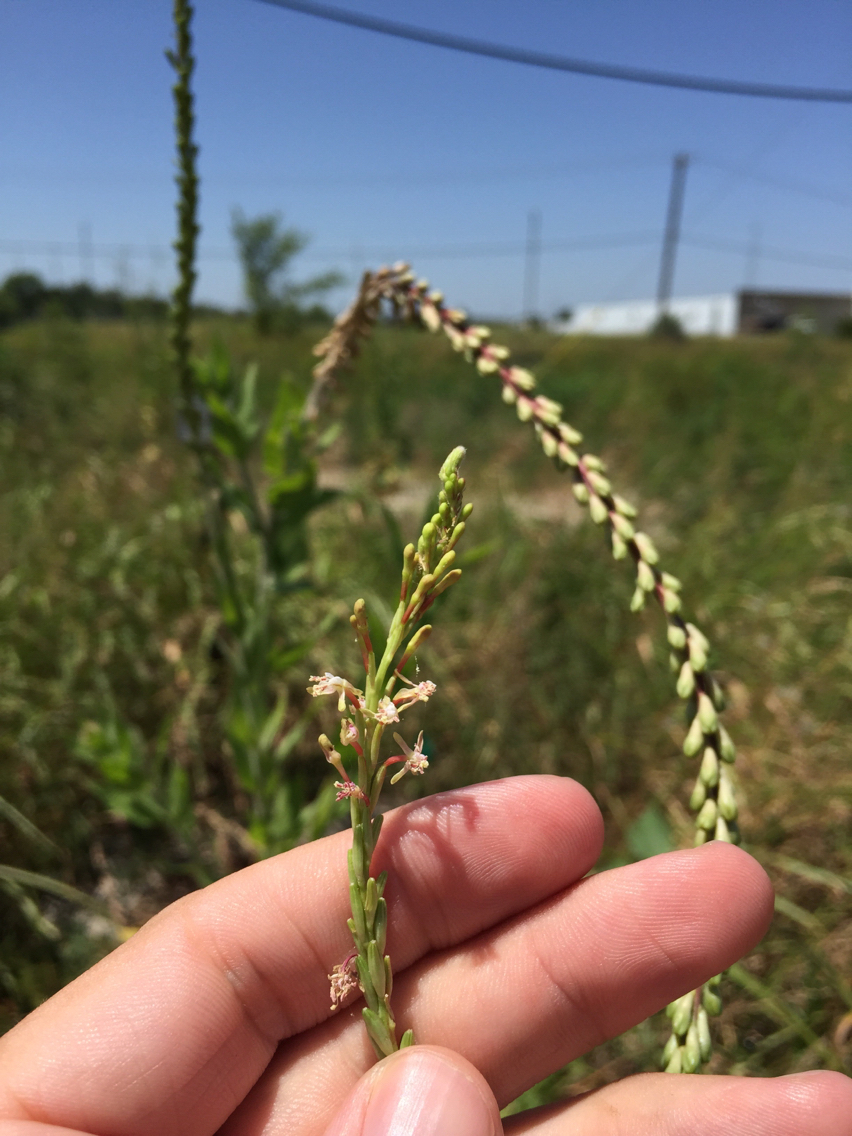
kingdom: Plantae
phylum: Tracheophyta
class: Magnoliopsida
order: Myrtales
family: Onagraceae
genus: Oenothera
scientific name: Oenothera curtiflora
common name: Velvetweed
